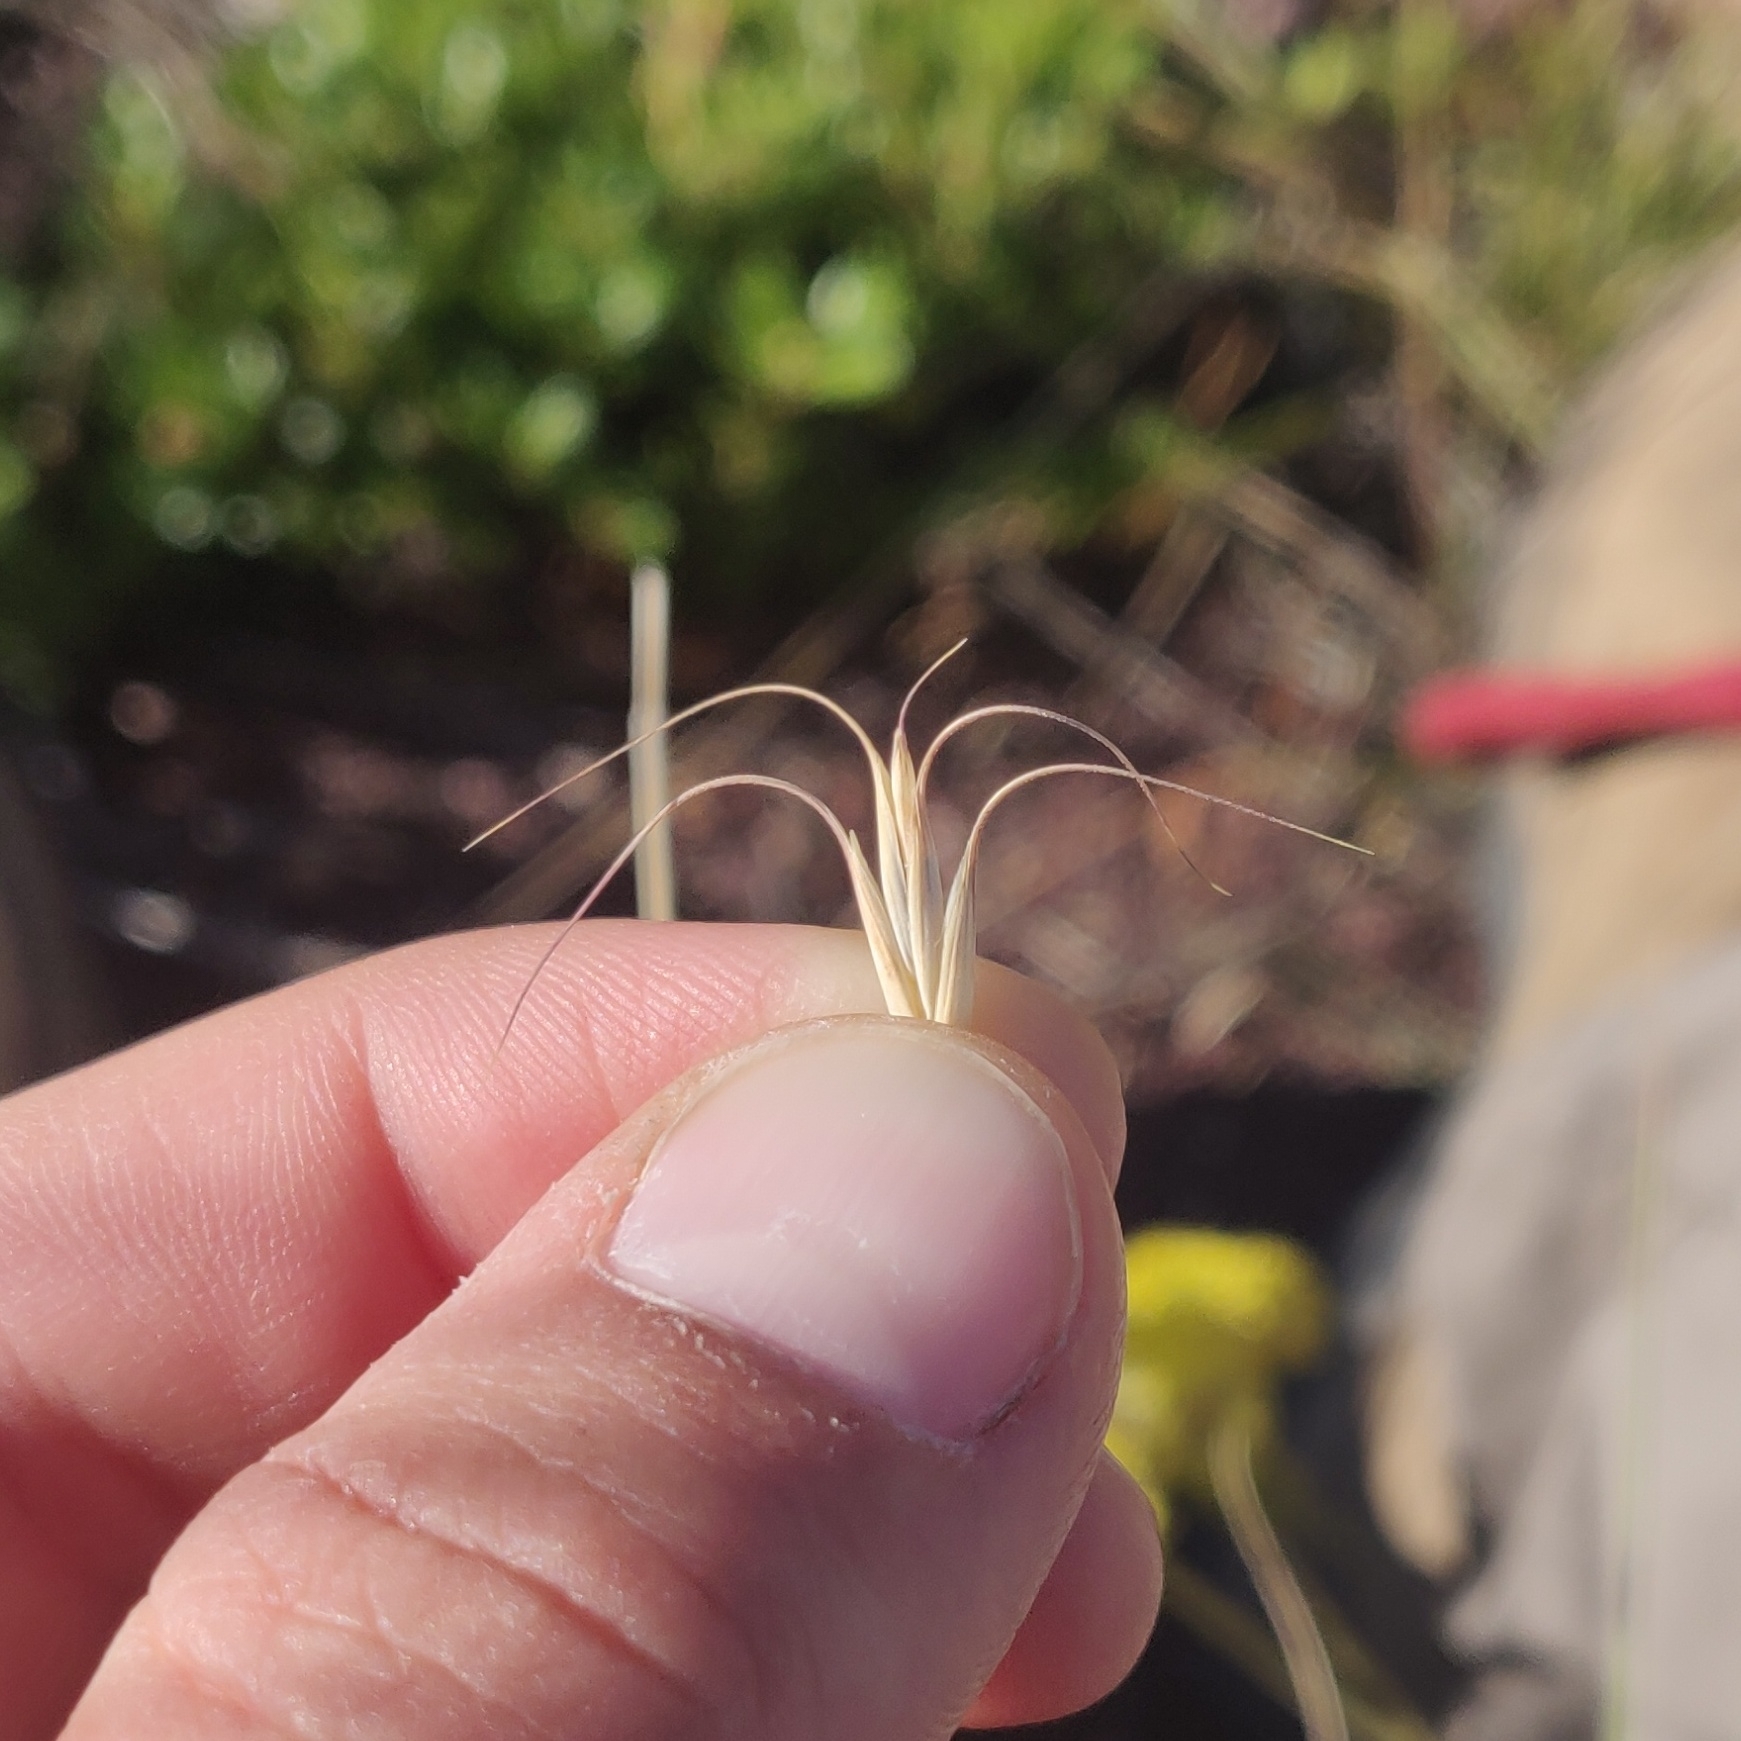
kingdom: Plantae
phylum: Tracheophyta
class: Liliopsida
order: Poales
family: Poaceae
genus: Pseudoroegneria
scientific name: Pseudoroegneria spicata
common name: Bluebunch wheatgrass
